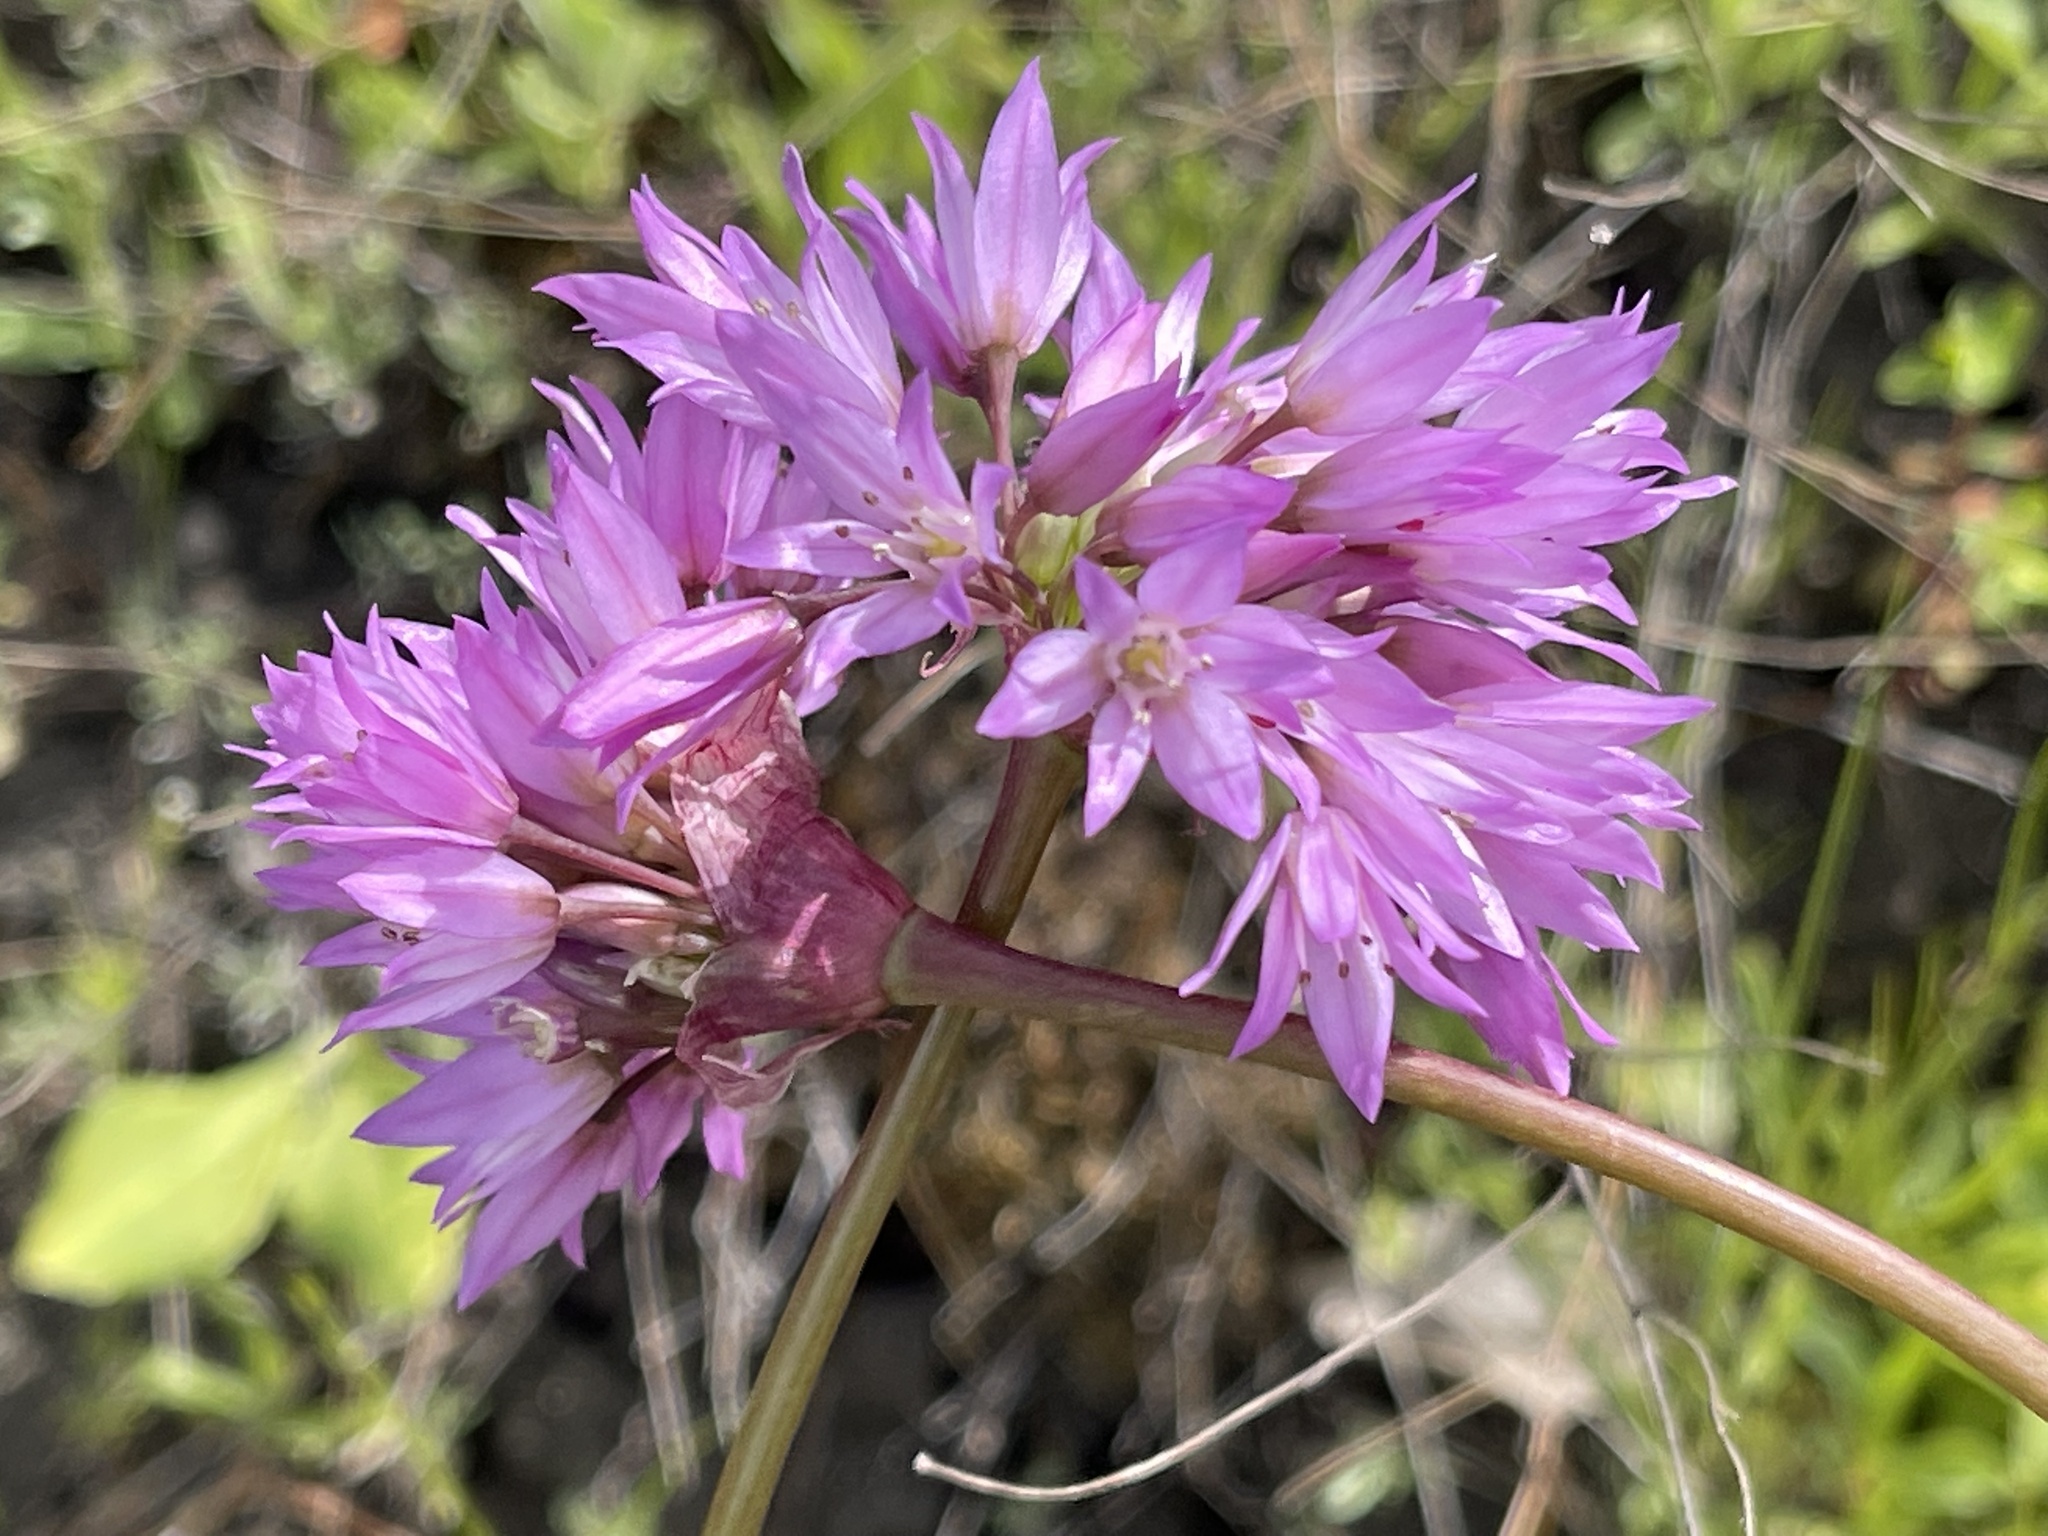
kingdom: Plantae
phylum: Tracheophyta
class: Liliopsida
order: Asparagales
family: Amaryllidaceae
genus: Allium
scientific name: Allium serra
